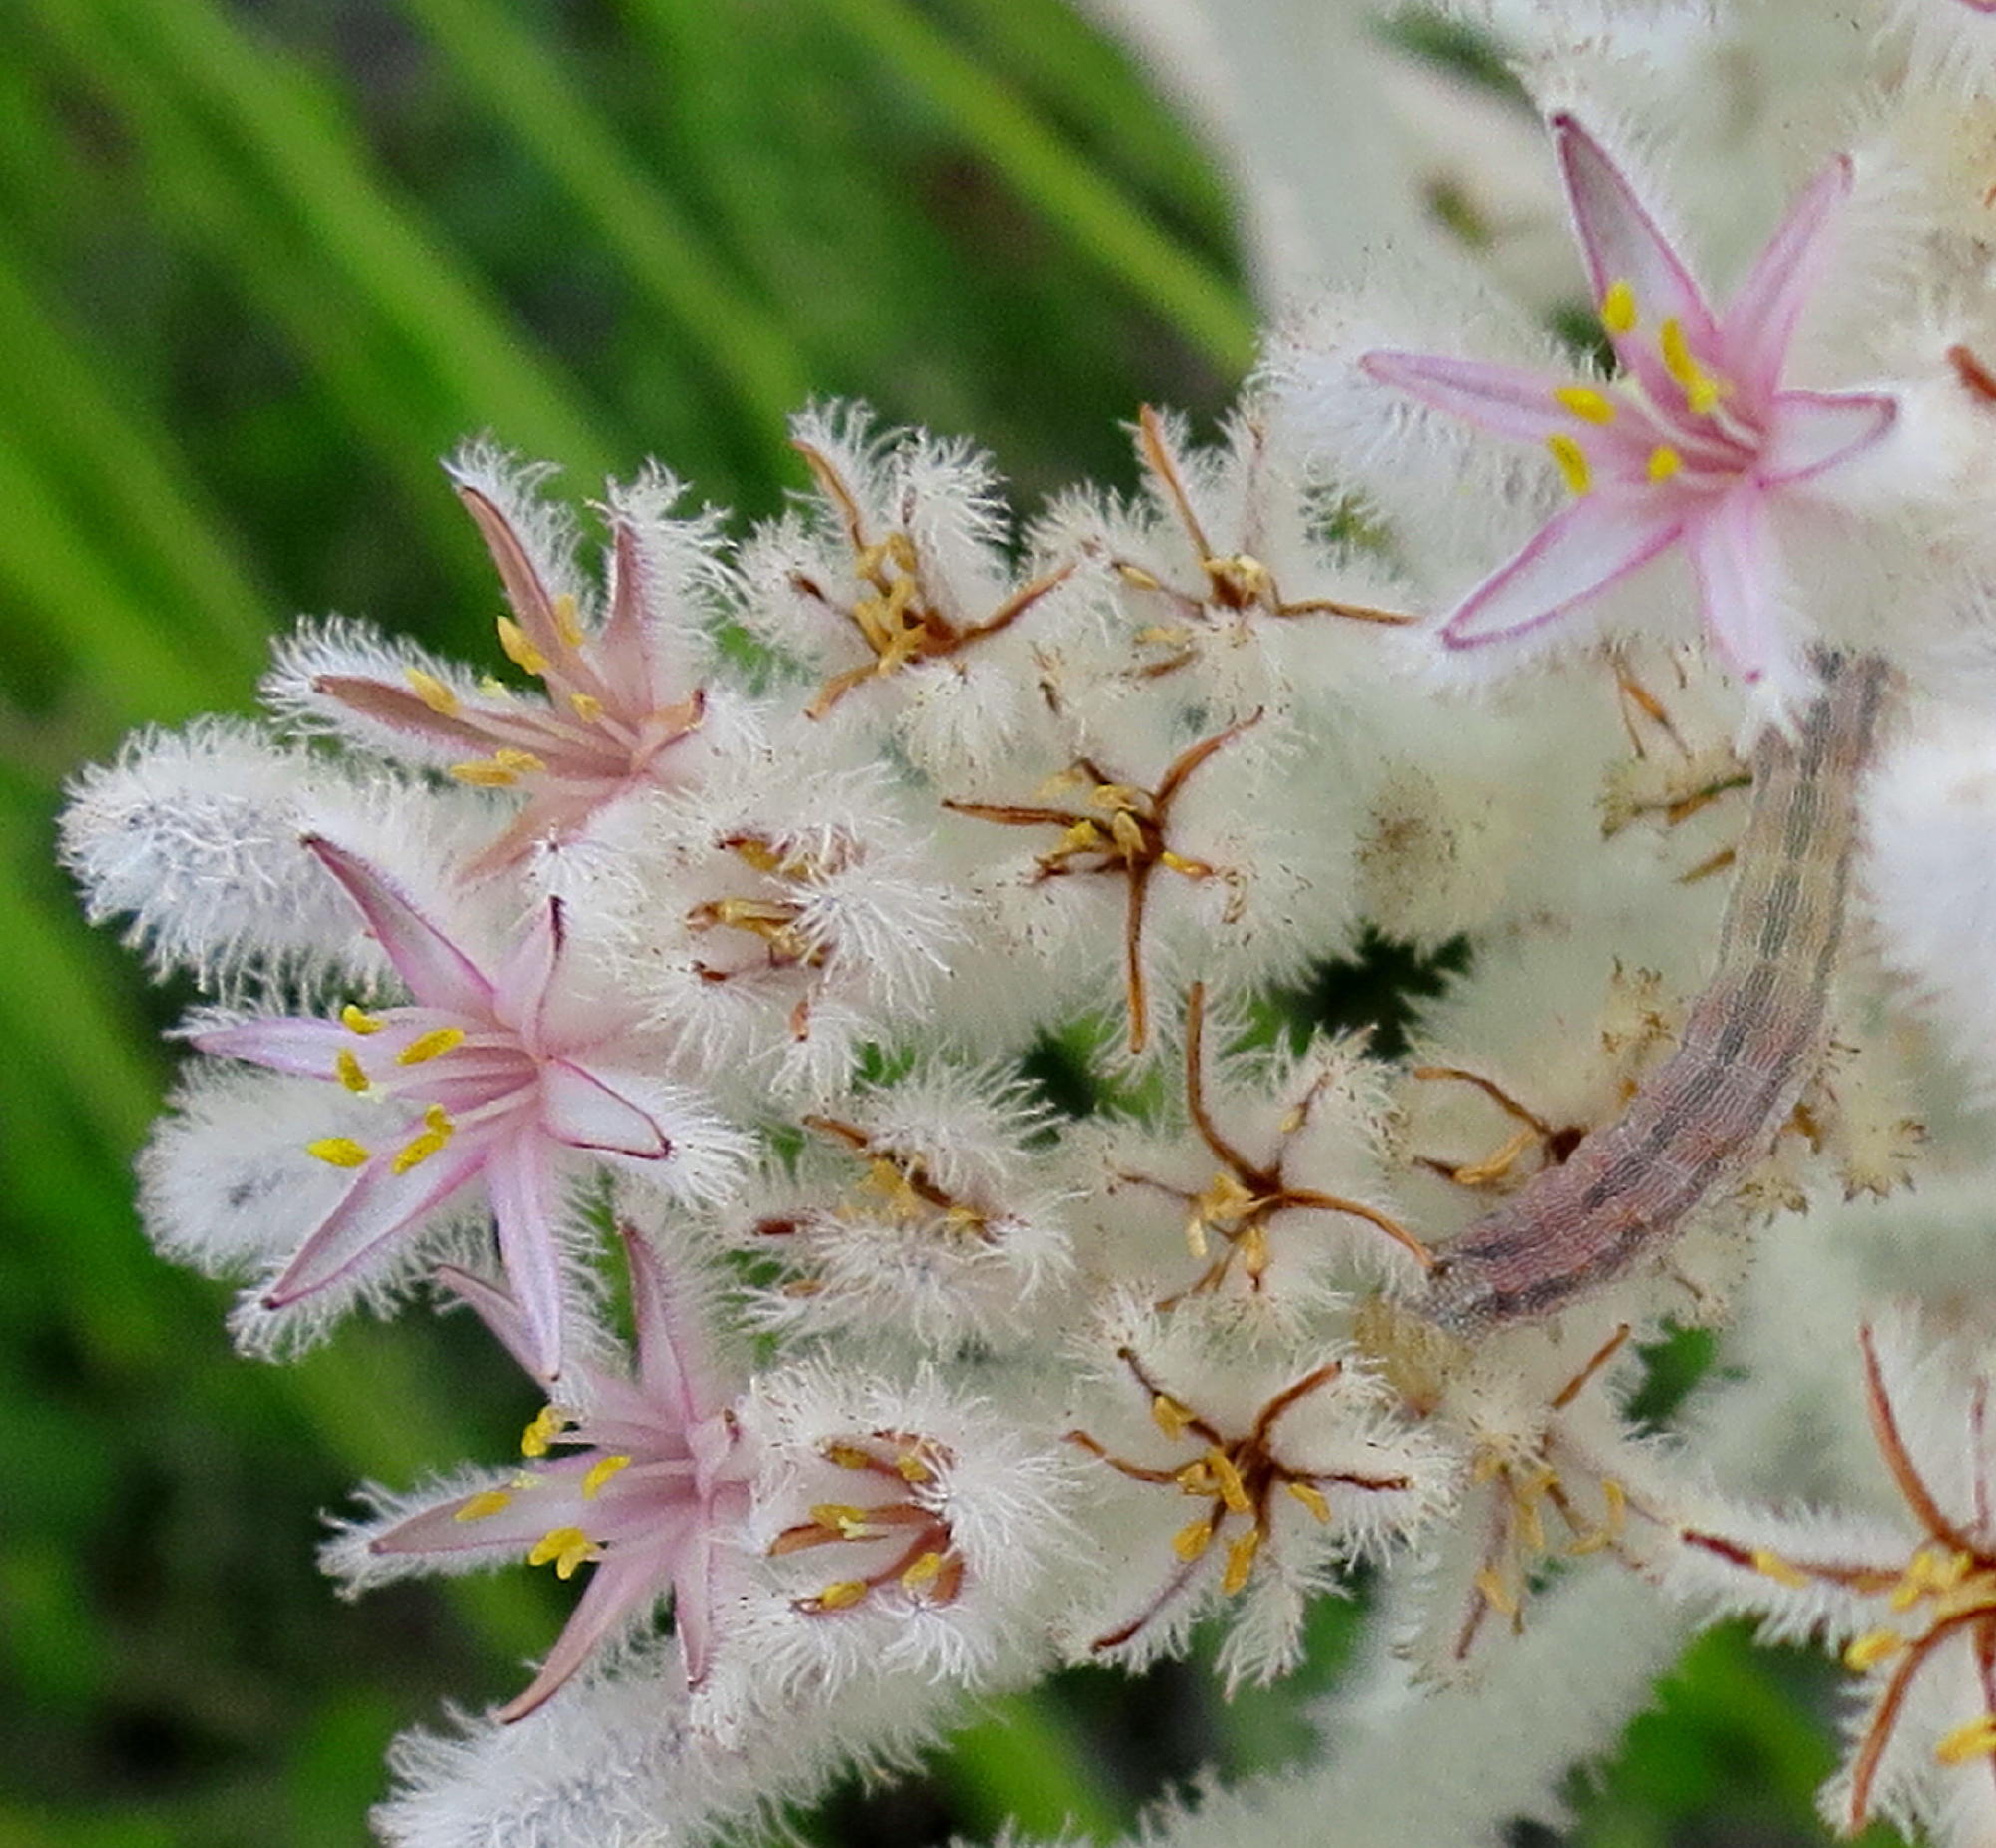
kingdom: Plantae
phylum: Tracheophyta
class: Liliopsida
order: Asparagales
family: Lanariaceae
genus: Lanaria
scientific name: Lanaria lanata
